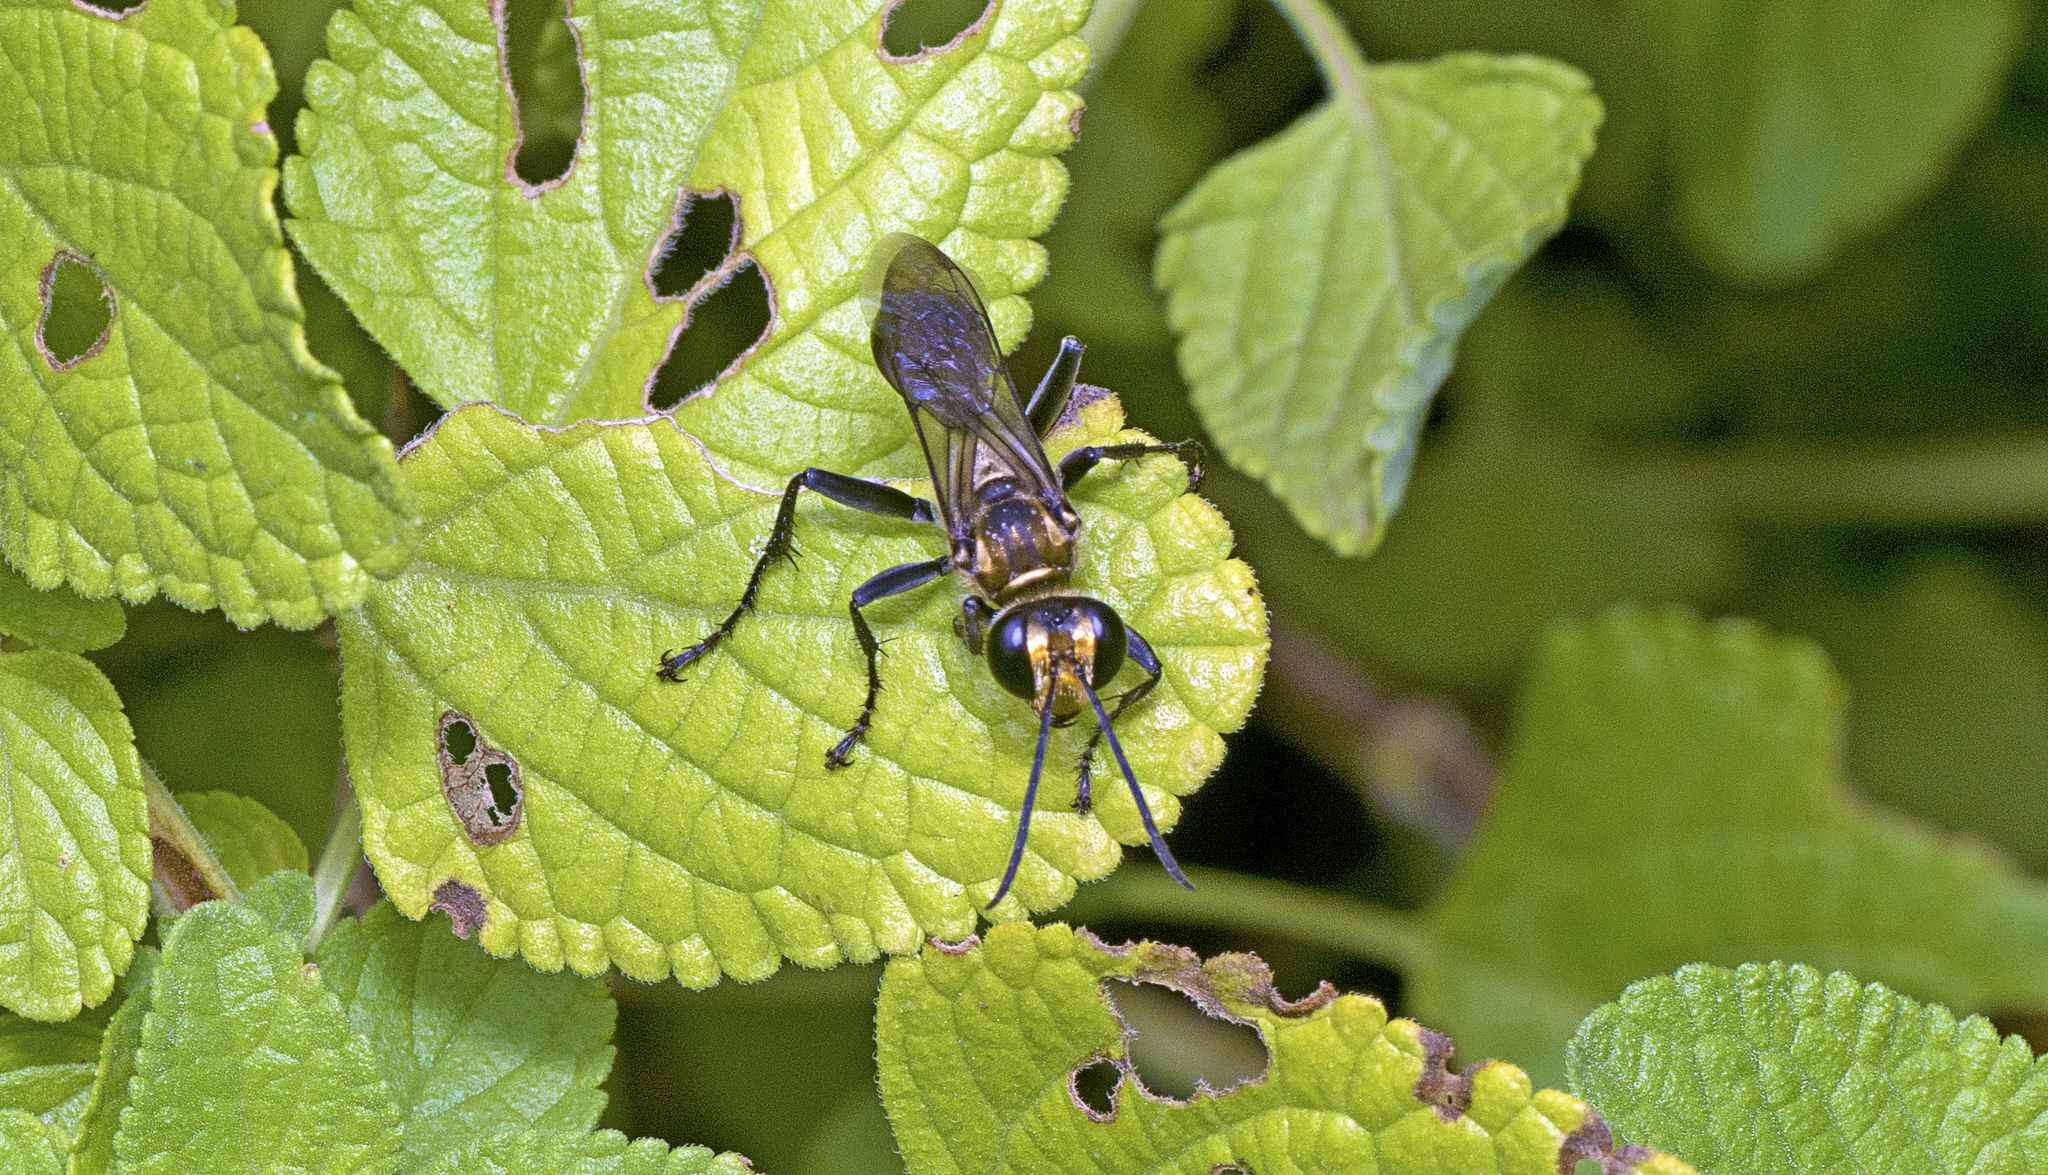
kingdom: Animalia
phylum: Arthropoda
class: Insecta
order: Hymenoptera
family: Sphecidae
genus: Sphex
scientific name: Sphex vestitus
